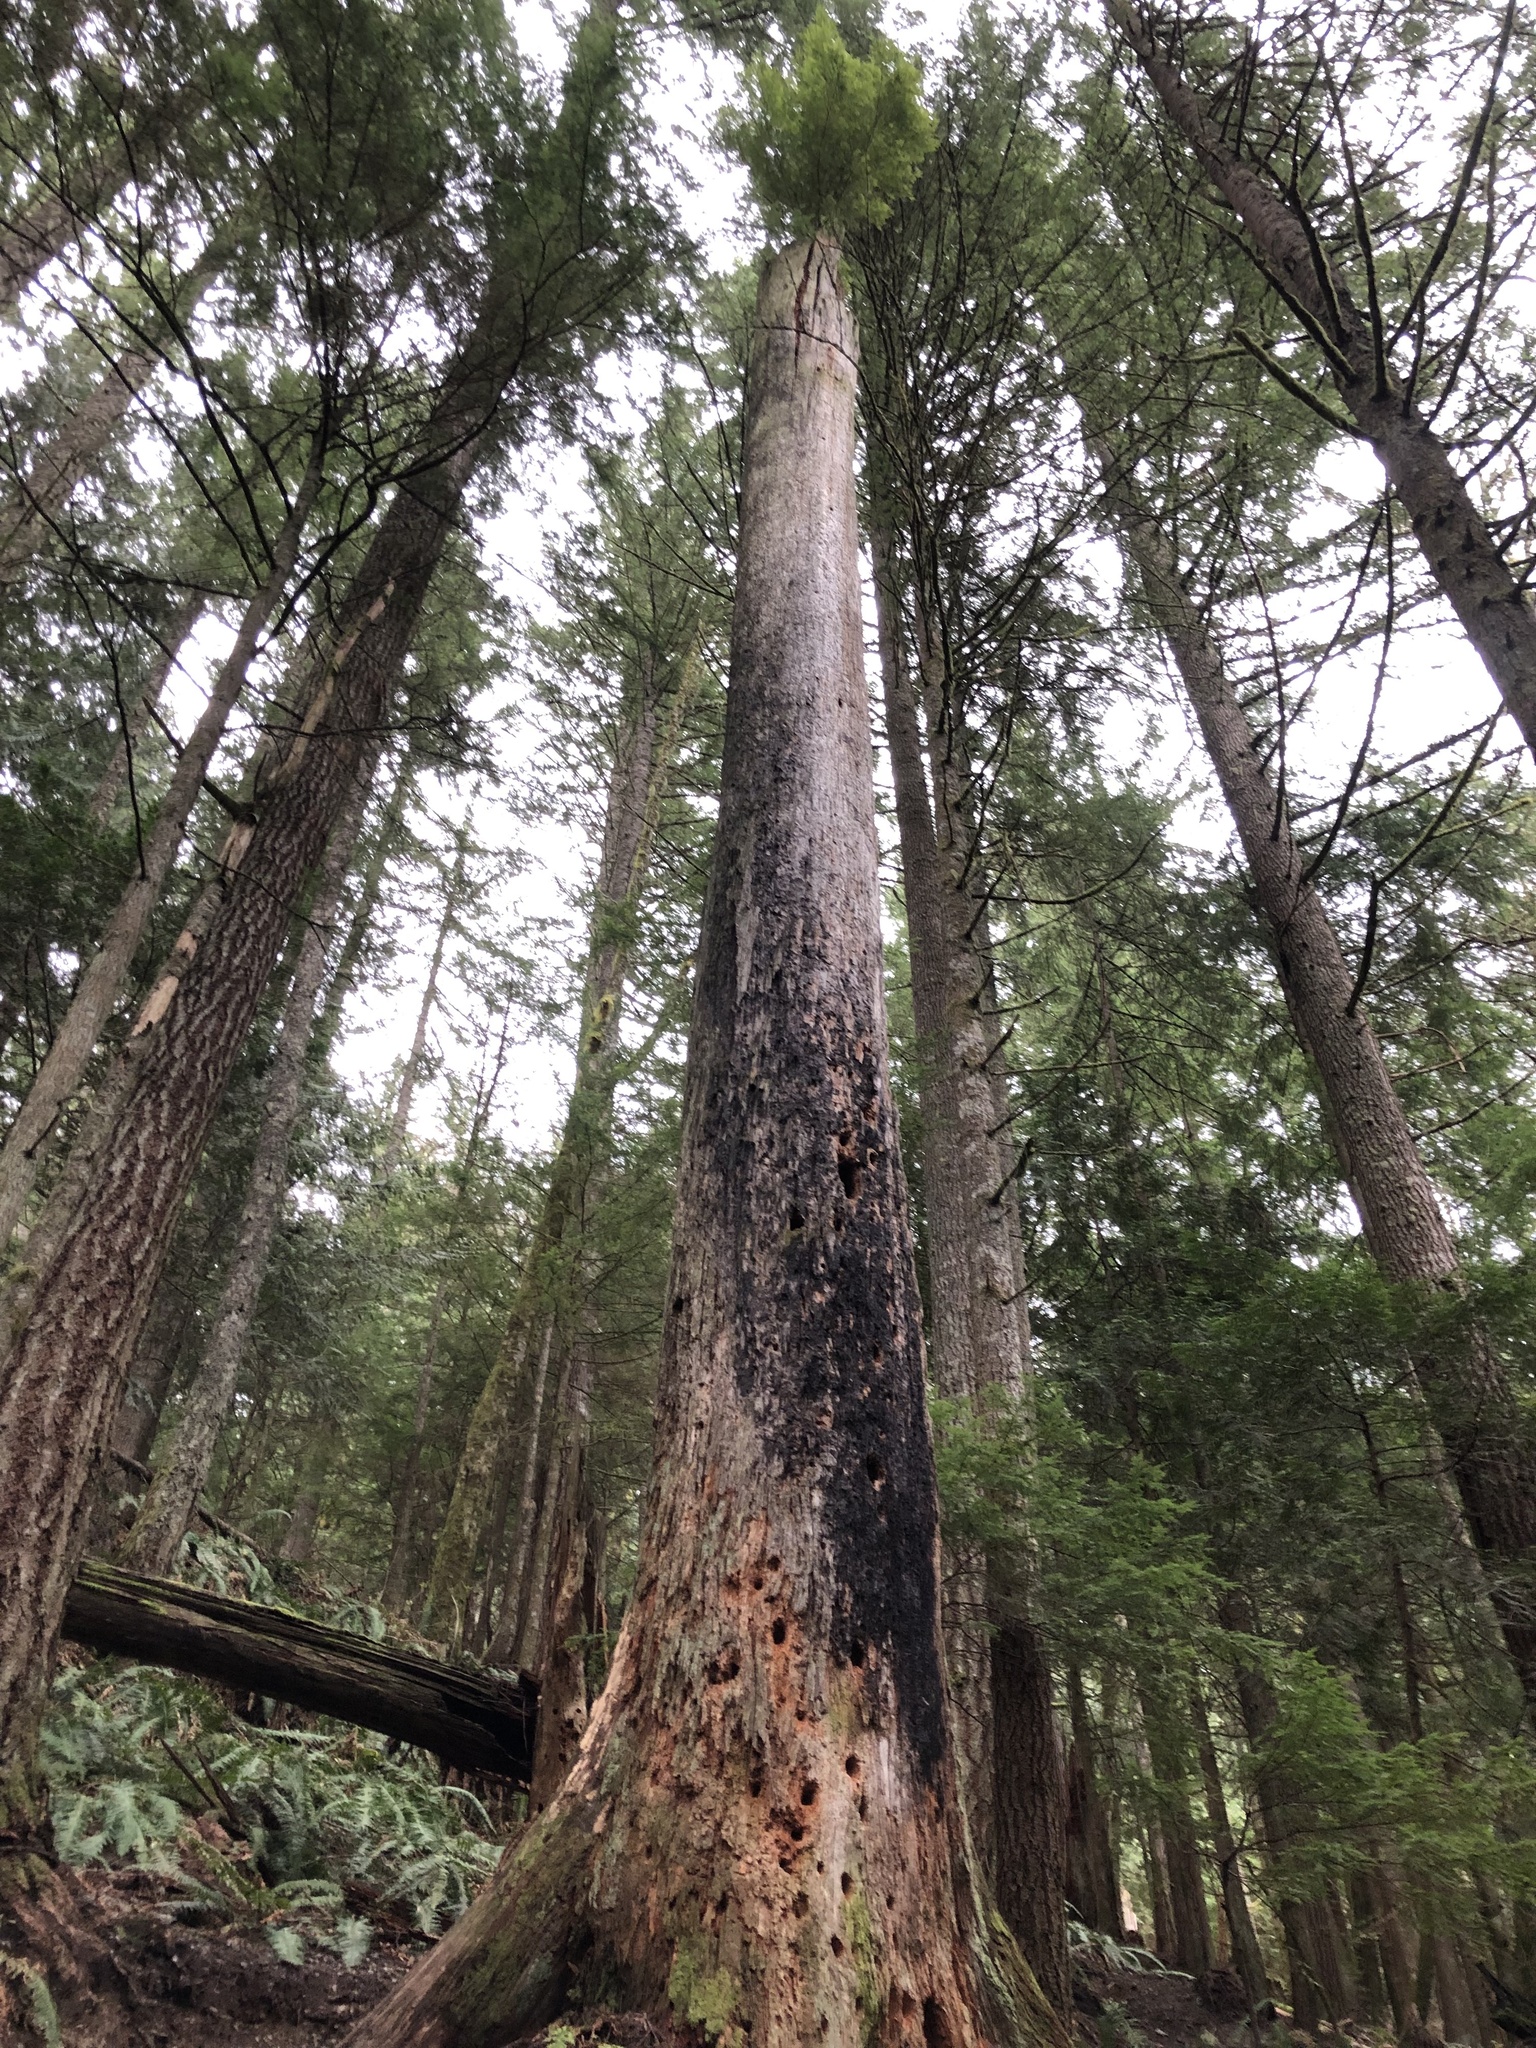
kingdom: Plantae
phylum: Tracheophyta
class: Pinopsida
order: Pinales
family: Pinaceae
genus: Tsuga
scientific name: Tsuga heterophylla
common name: Western hemlock
